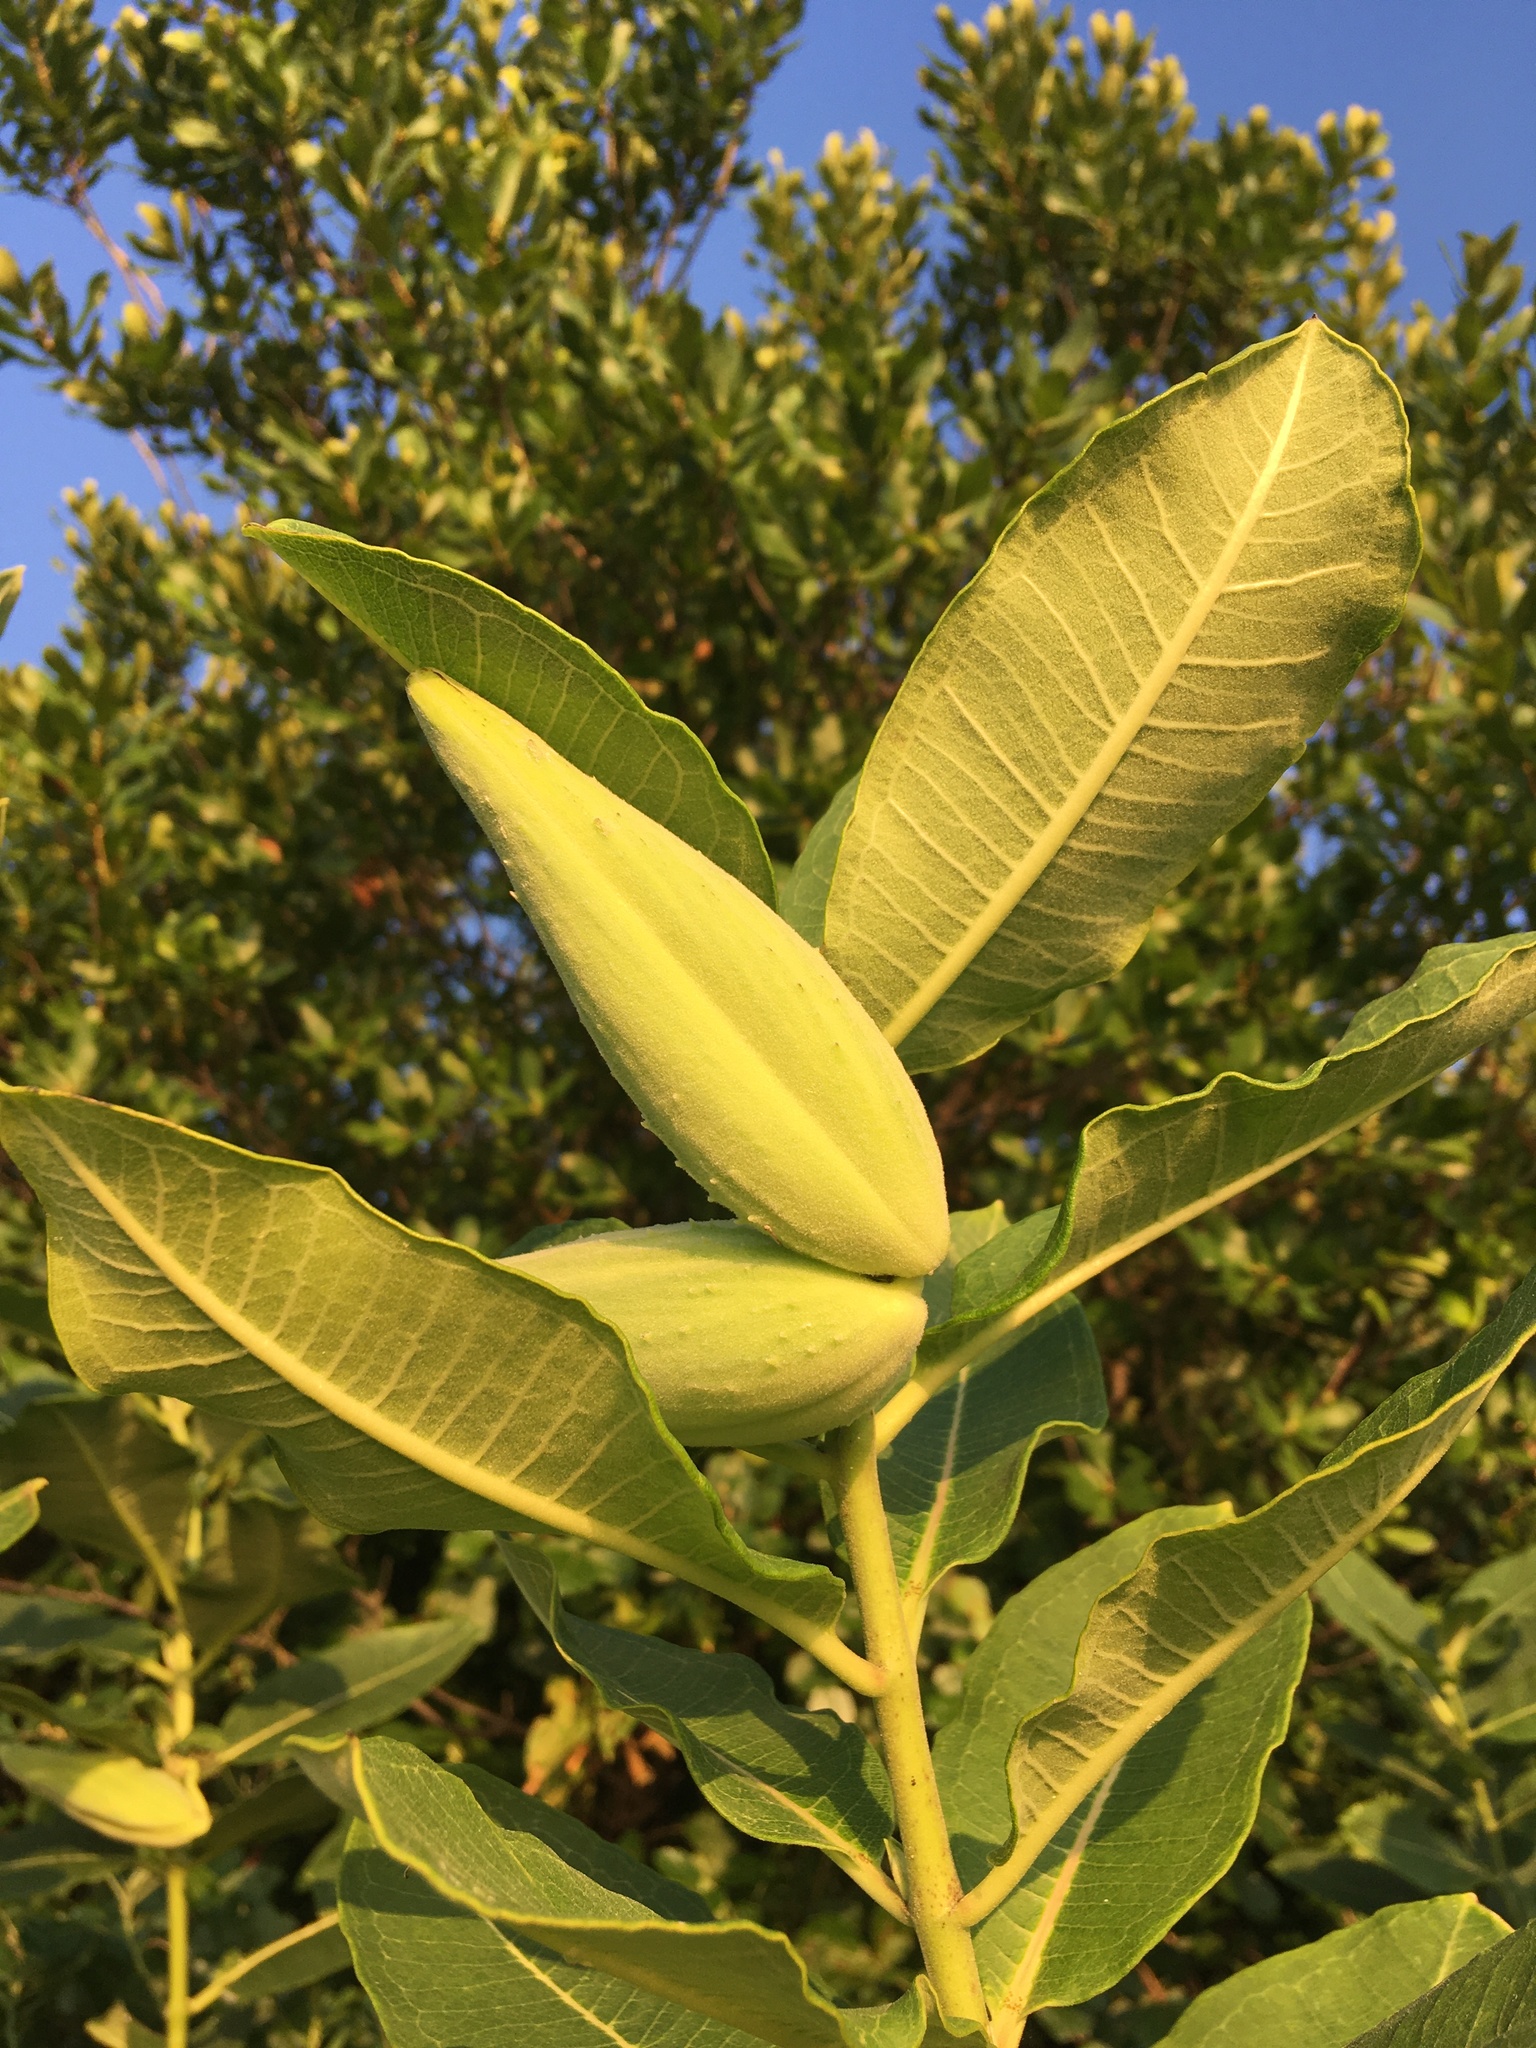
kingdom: Plantae
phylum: Tracheophyta
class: Magnoliopsida
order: Gentianales
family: Apocynaceae
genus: Asclepias
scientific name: Asclepias syriaca
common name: Common milkweed
